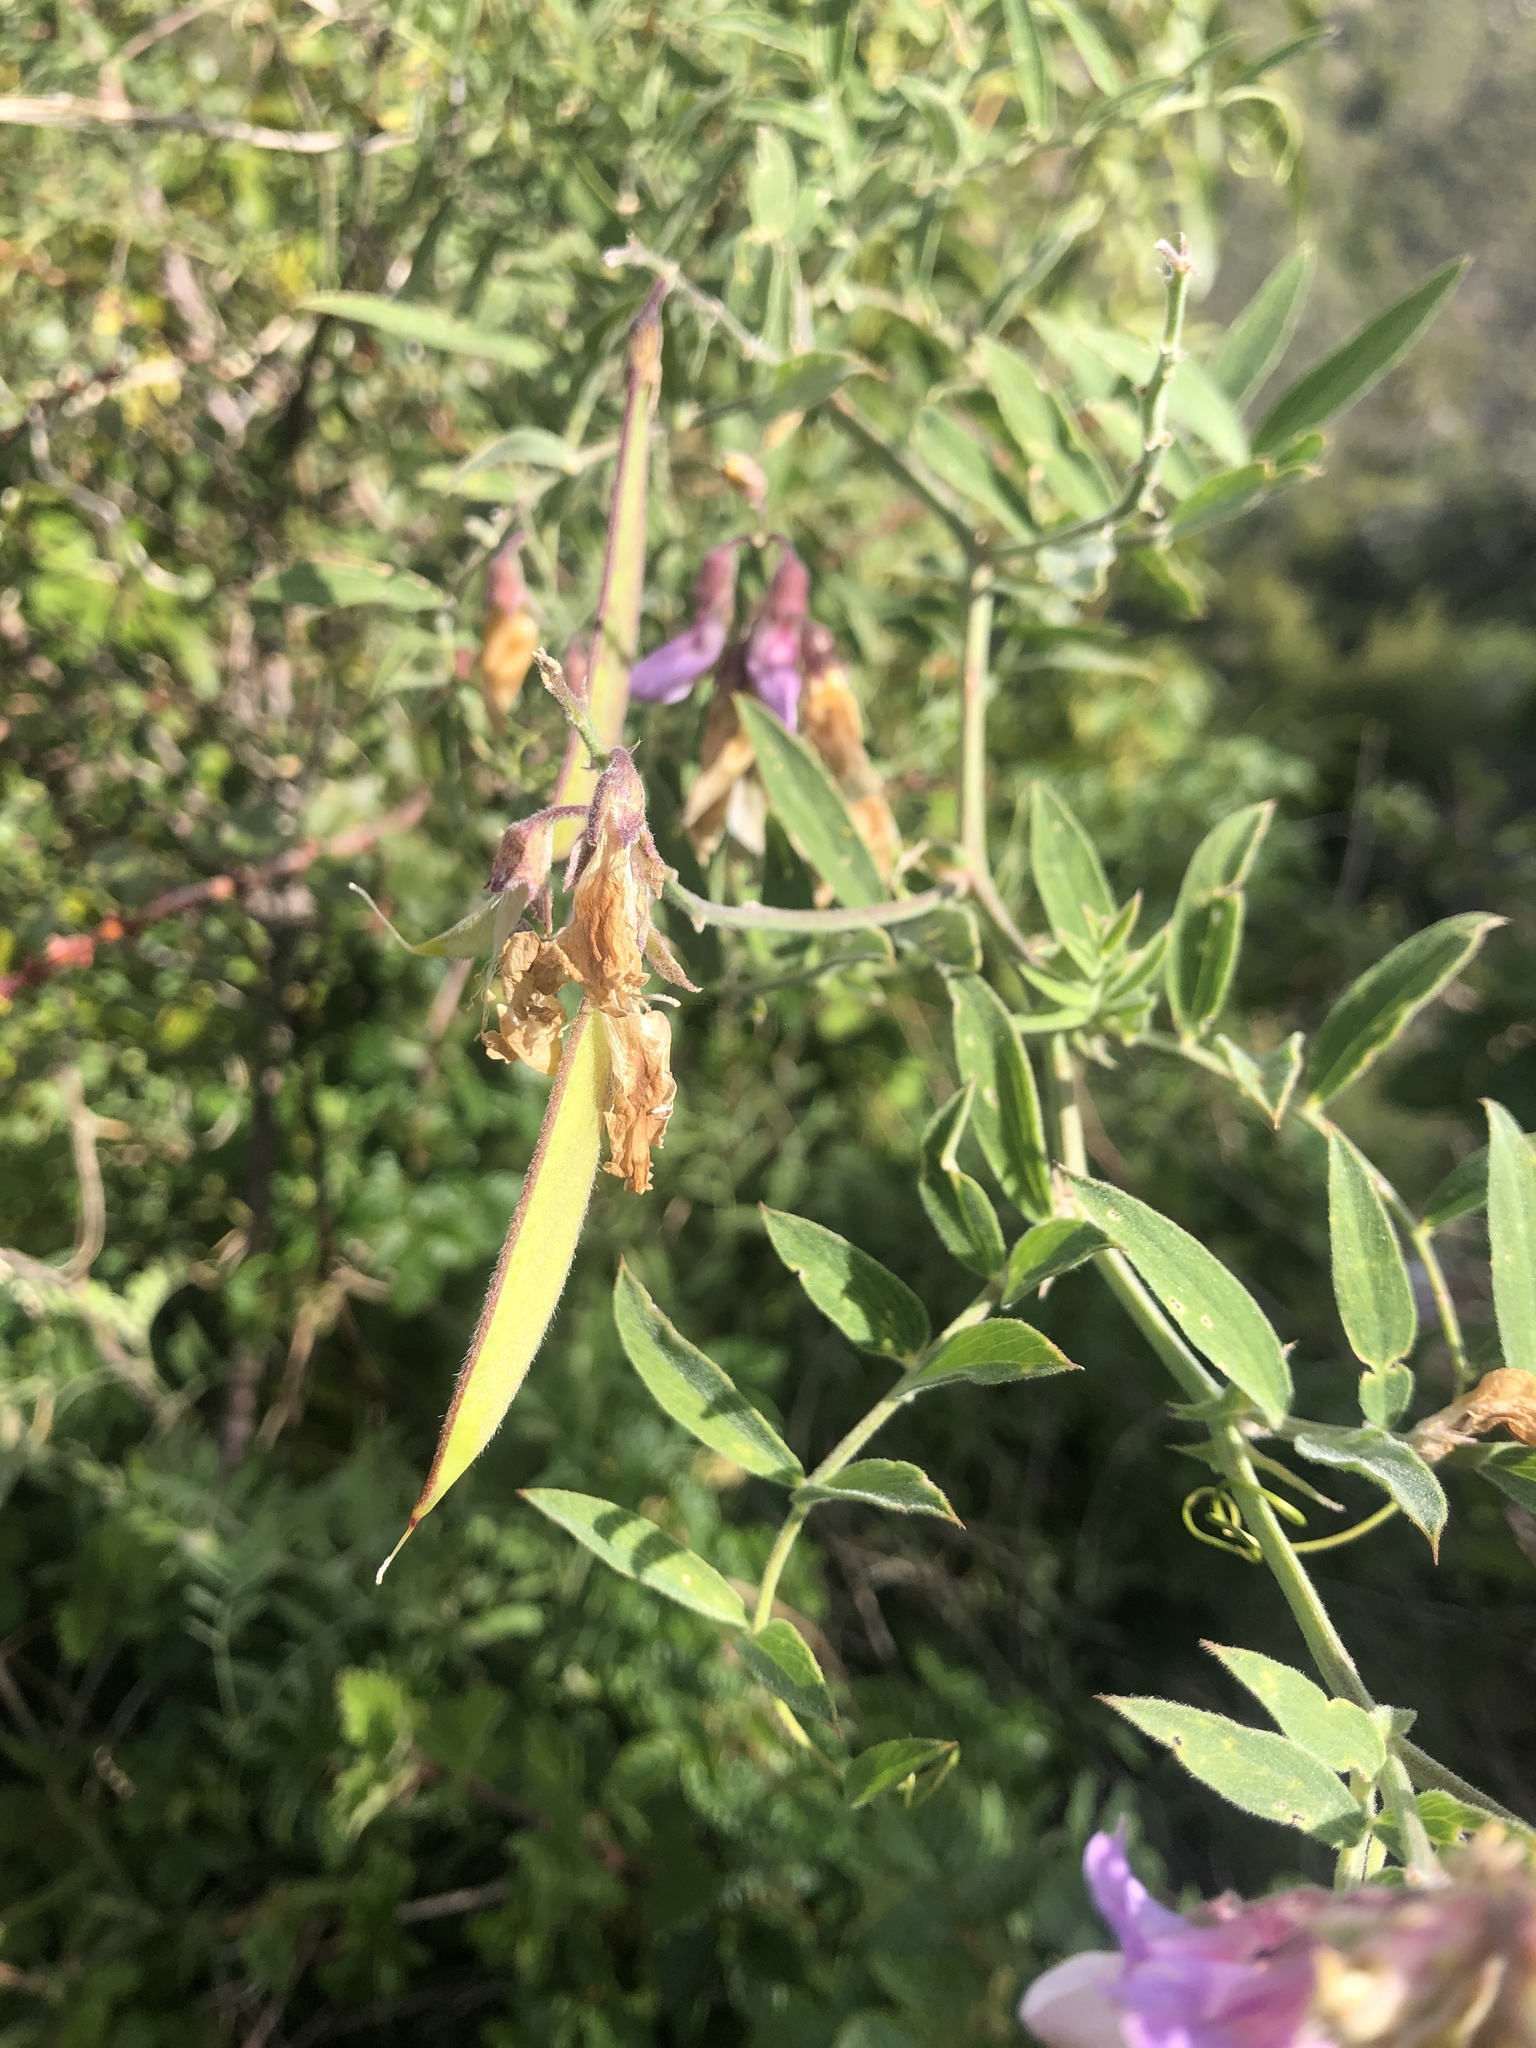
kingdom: Plantae
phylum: Tracheophyta
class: Magnoliopsida
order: Fabales
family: Fabaceae
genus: Lathyrus
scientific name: Lathyrus vestitus
